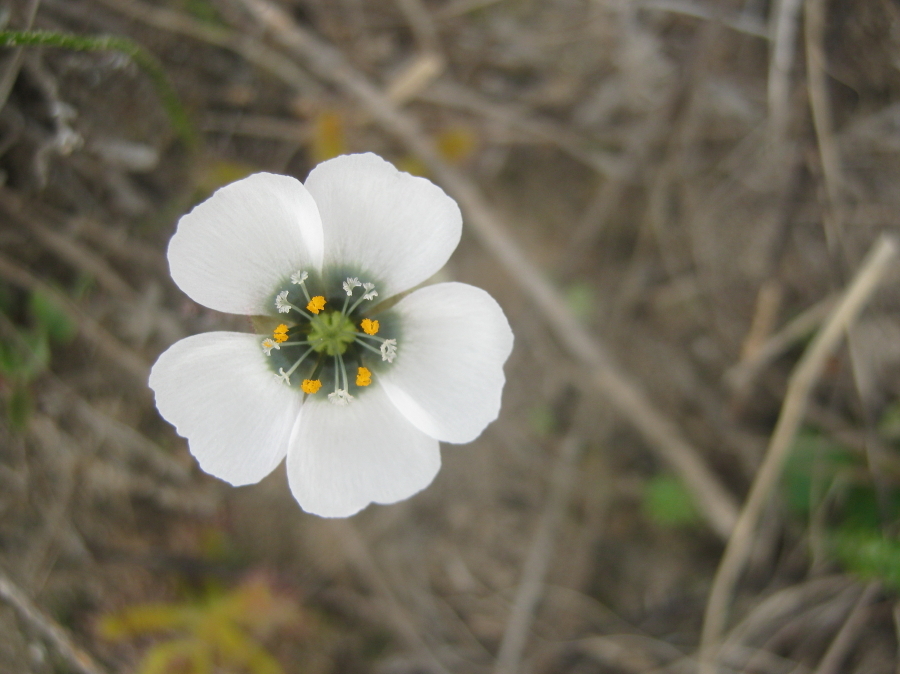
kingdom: Plantae
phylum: Tracheophyta
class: Magnoliopsida
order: Caryophyllales
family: Droseraceae
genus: Drosera
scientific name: Drosera cistiflora
